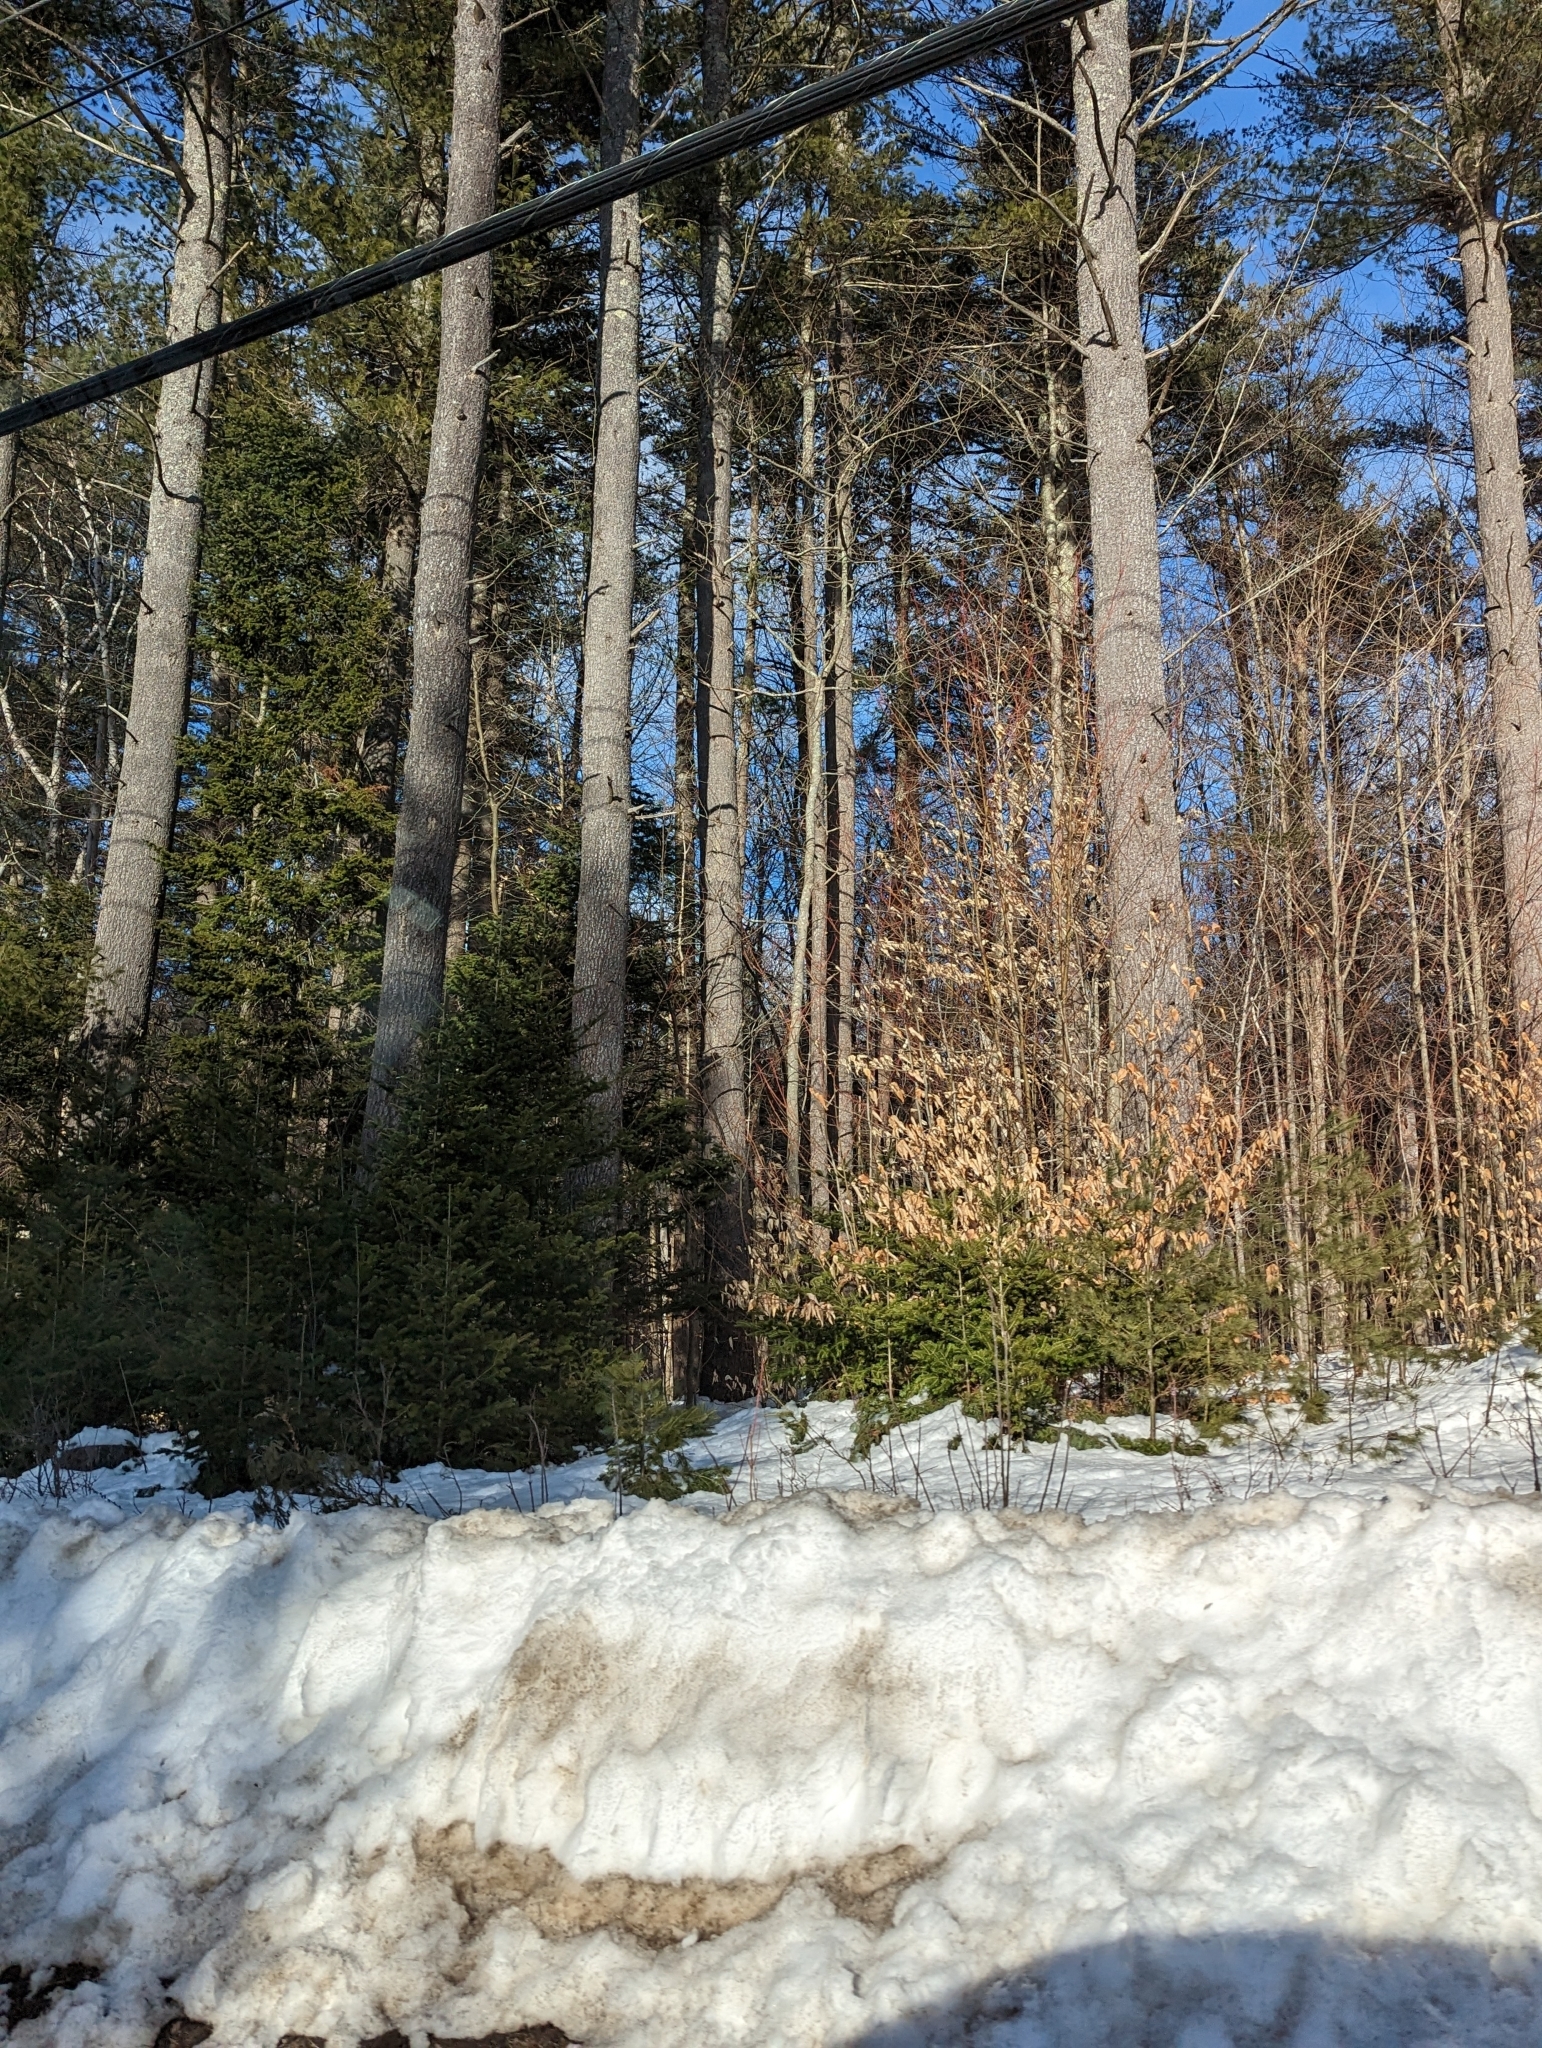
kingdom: Plantae
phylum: Tracheophyta
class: Magnoliopsida
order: Fagales
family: Fagaceae
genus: Fagus
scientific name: Fagus grandifolia
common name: American beech
